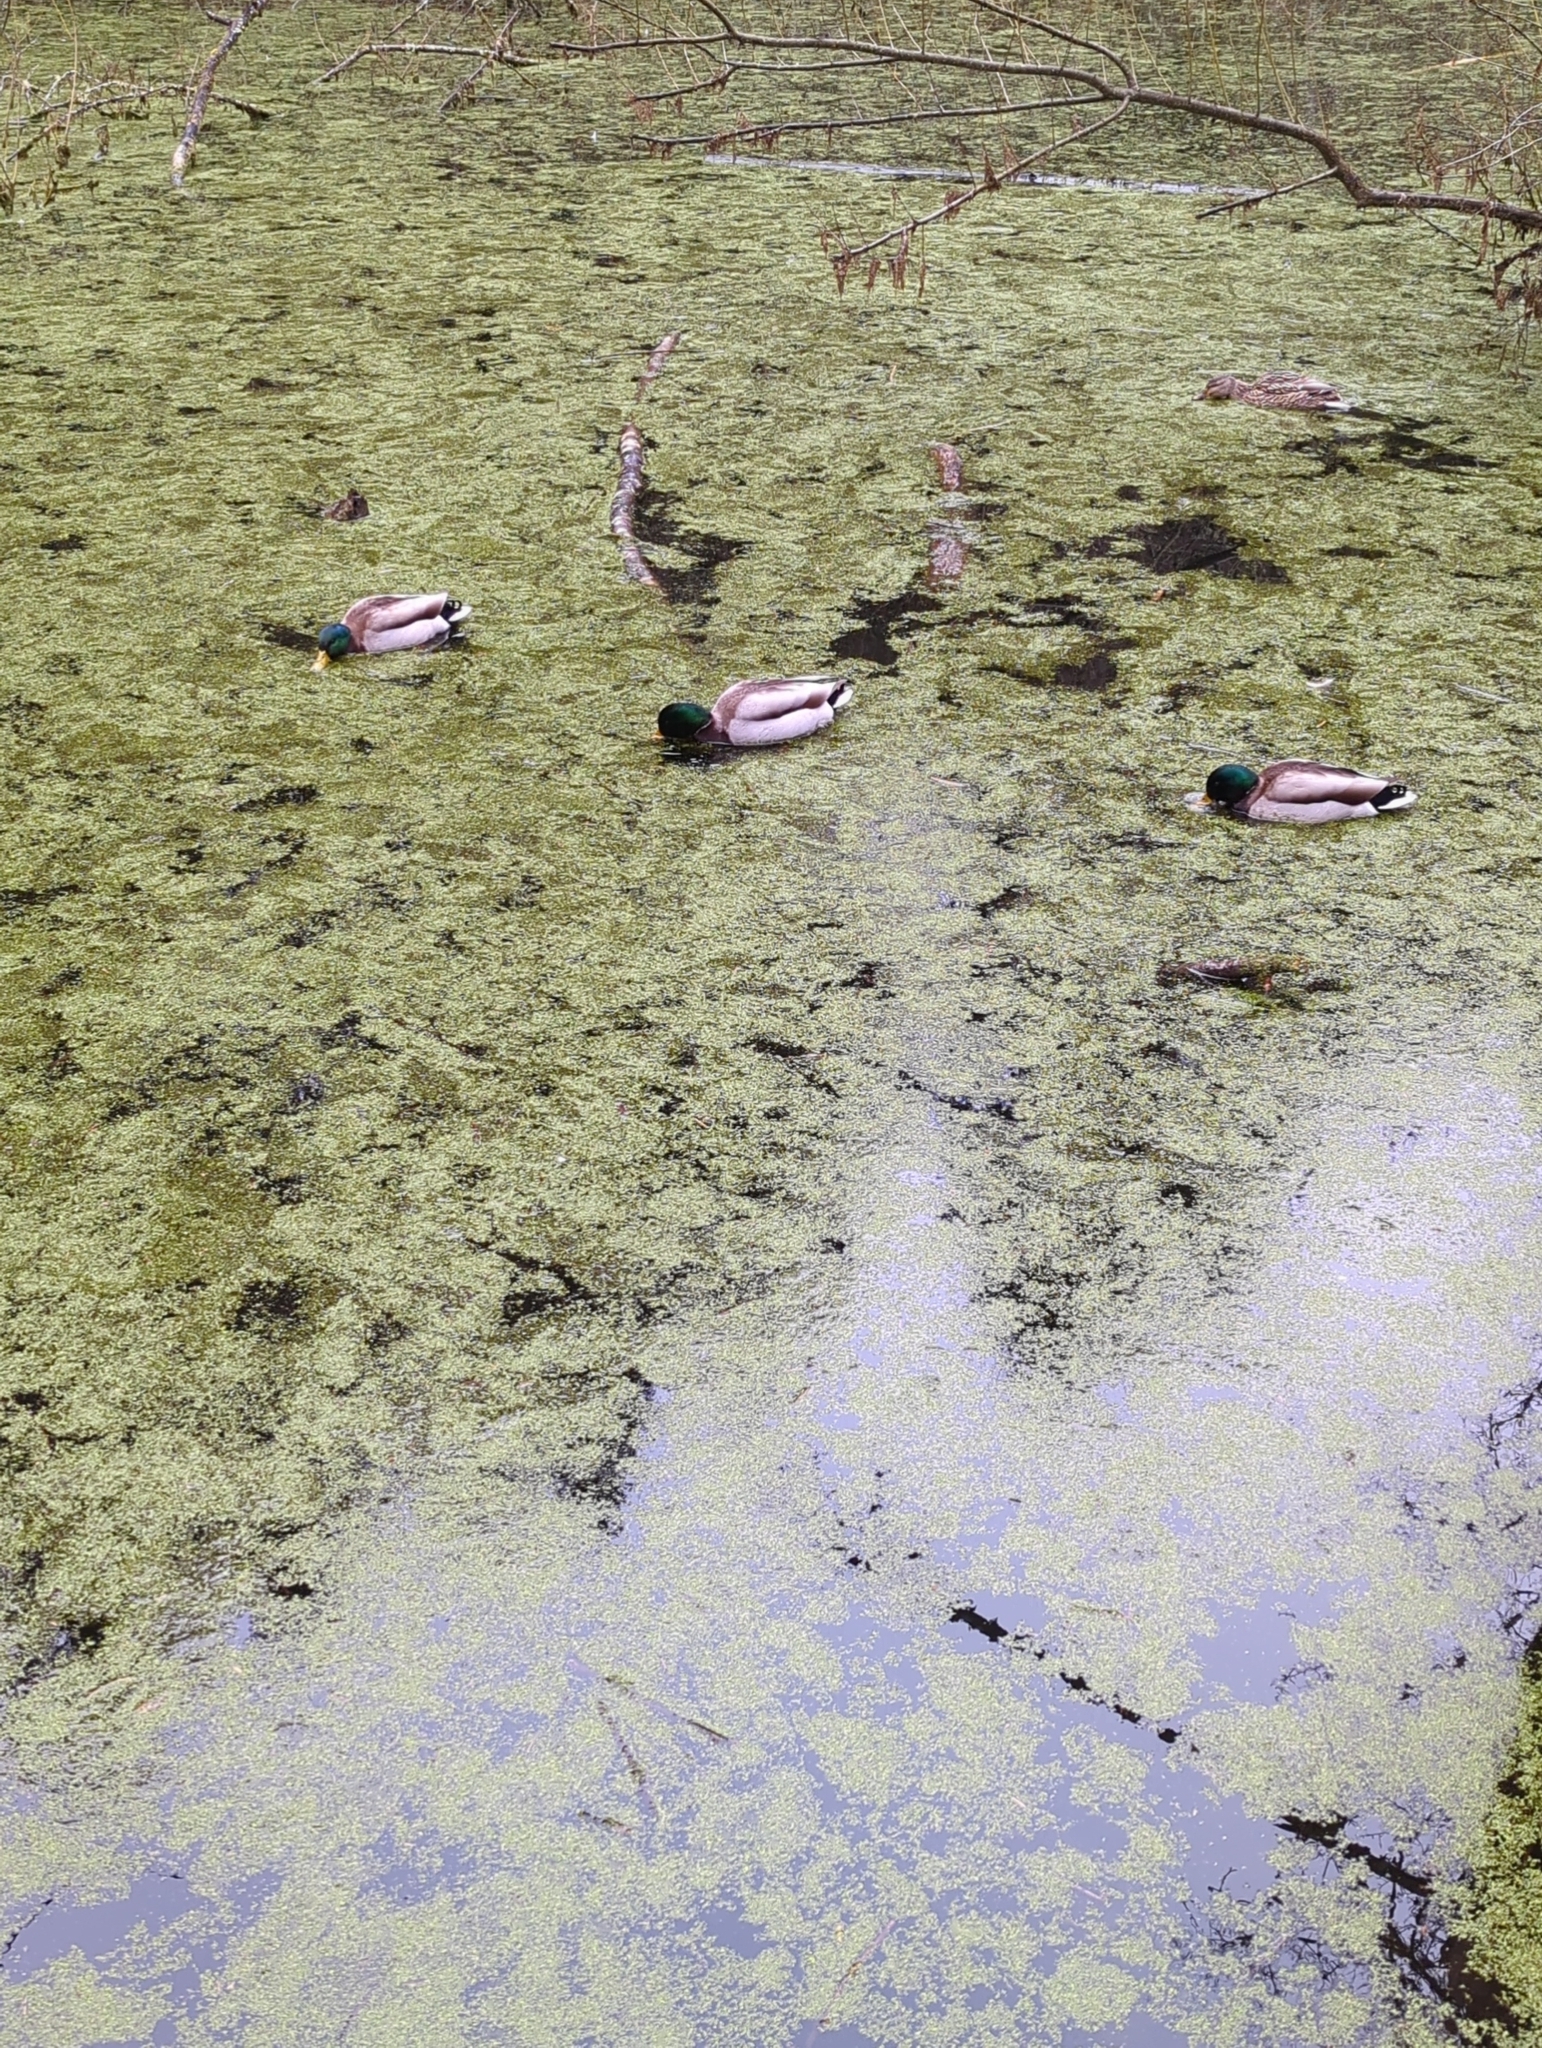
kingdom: Animalia
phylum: Chordata
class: Aves
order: Anseriformes
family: Anatidae
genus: Anas
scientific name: Anas platyrhynchos
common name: Mallard
